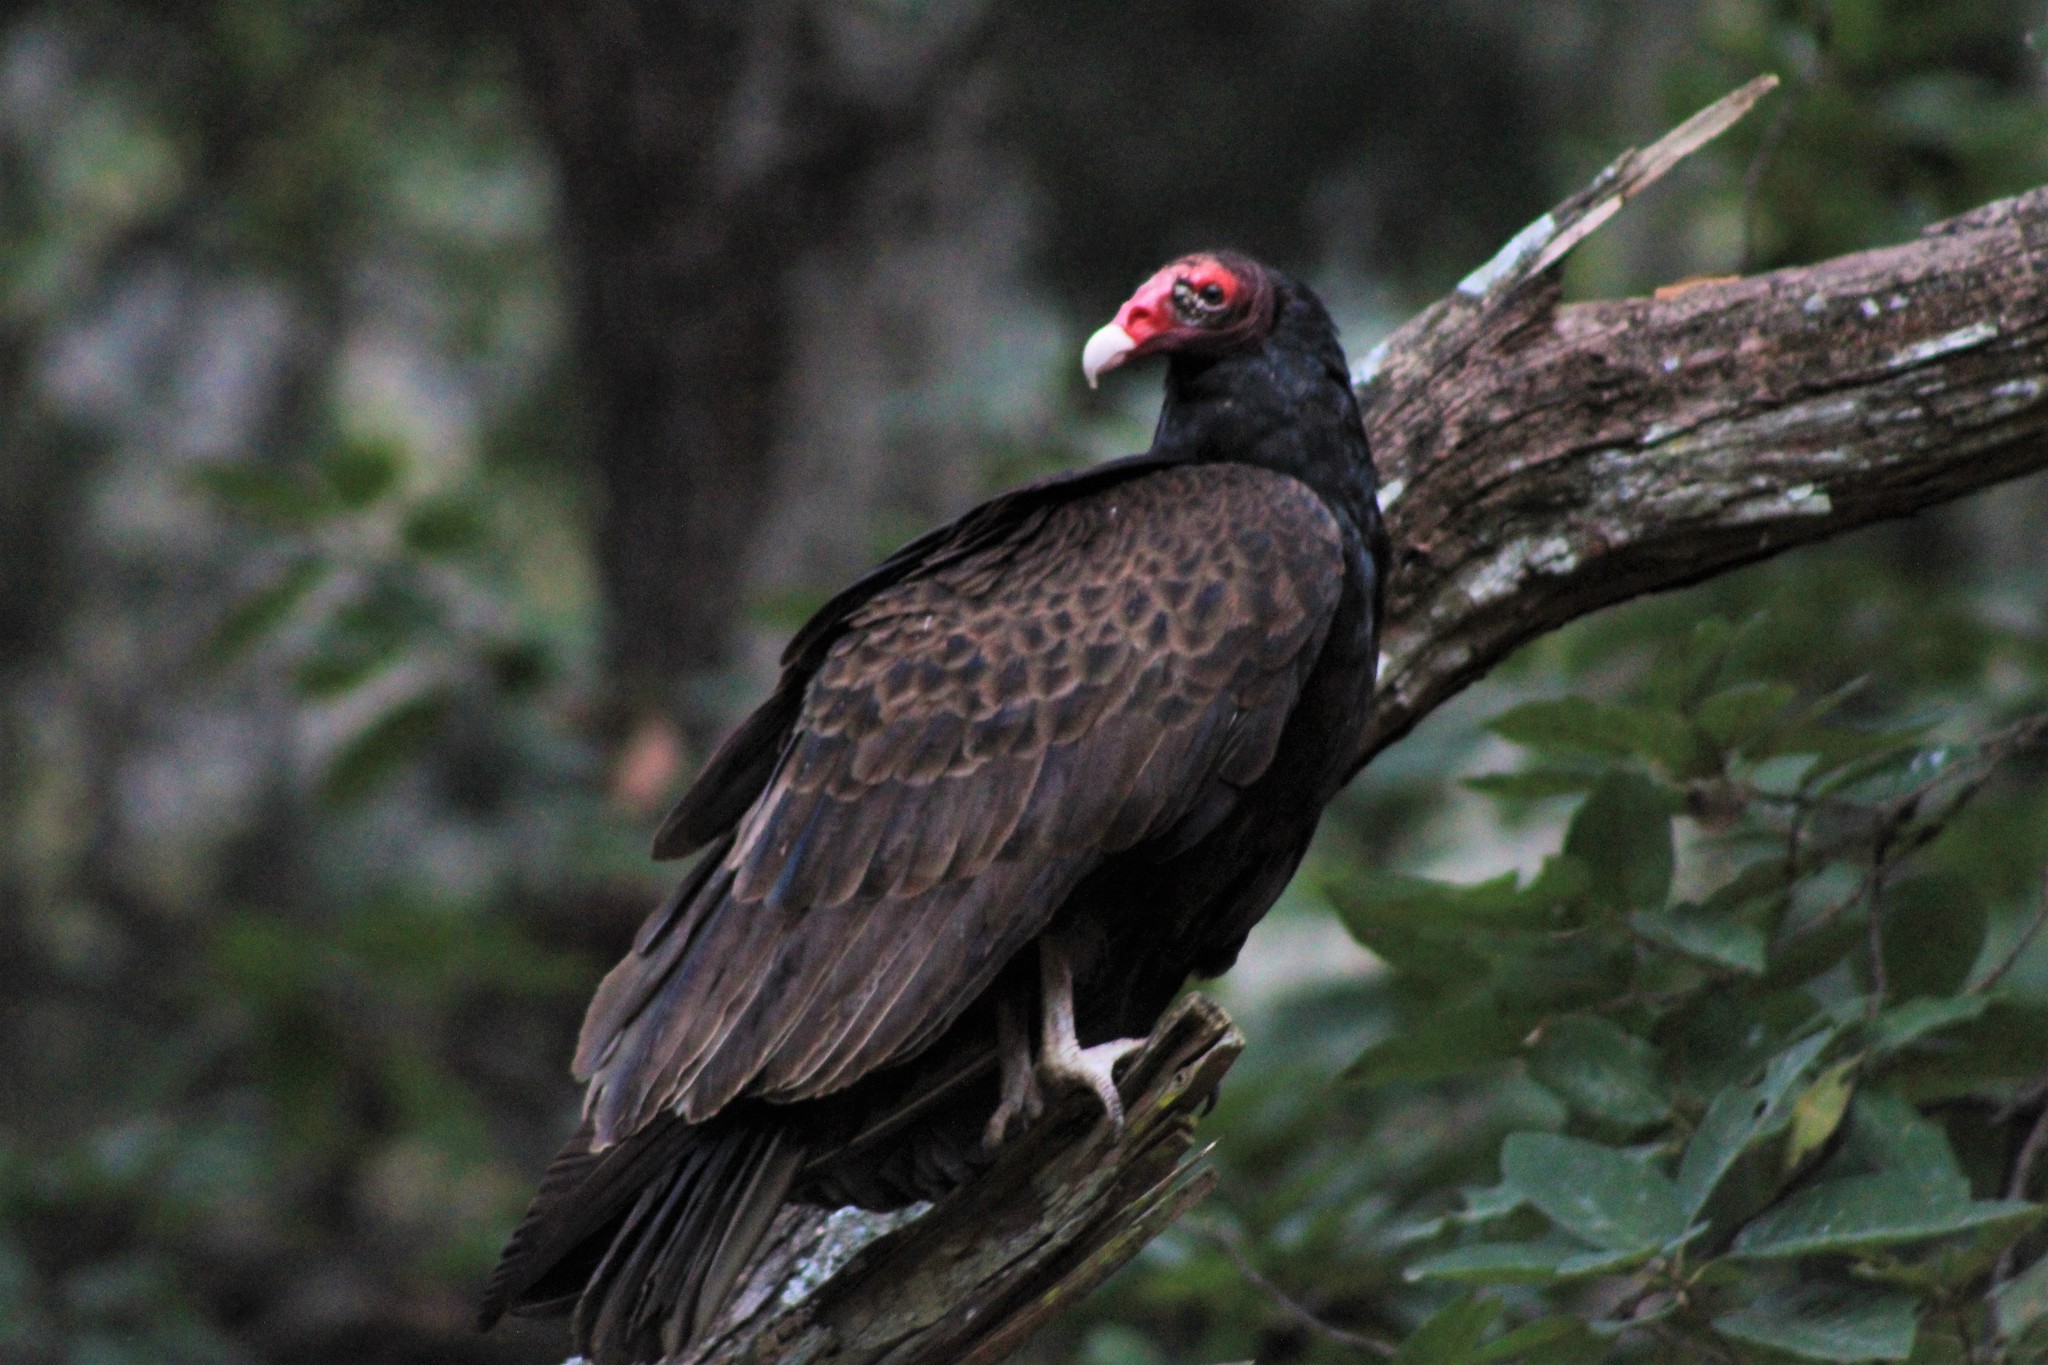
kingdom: Animalia
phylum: Chordata
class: Aves
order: Accipitriformes
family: Cathartidae
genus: Cathartes
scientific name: Cathartes aura
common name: Turkey vulture
